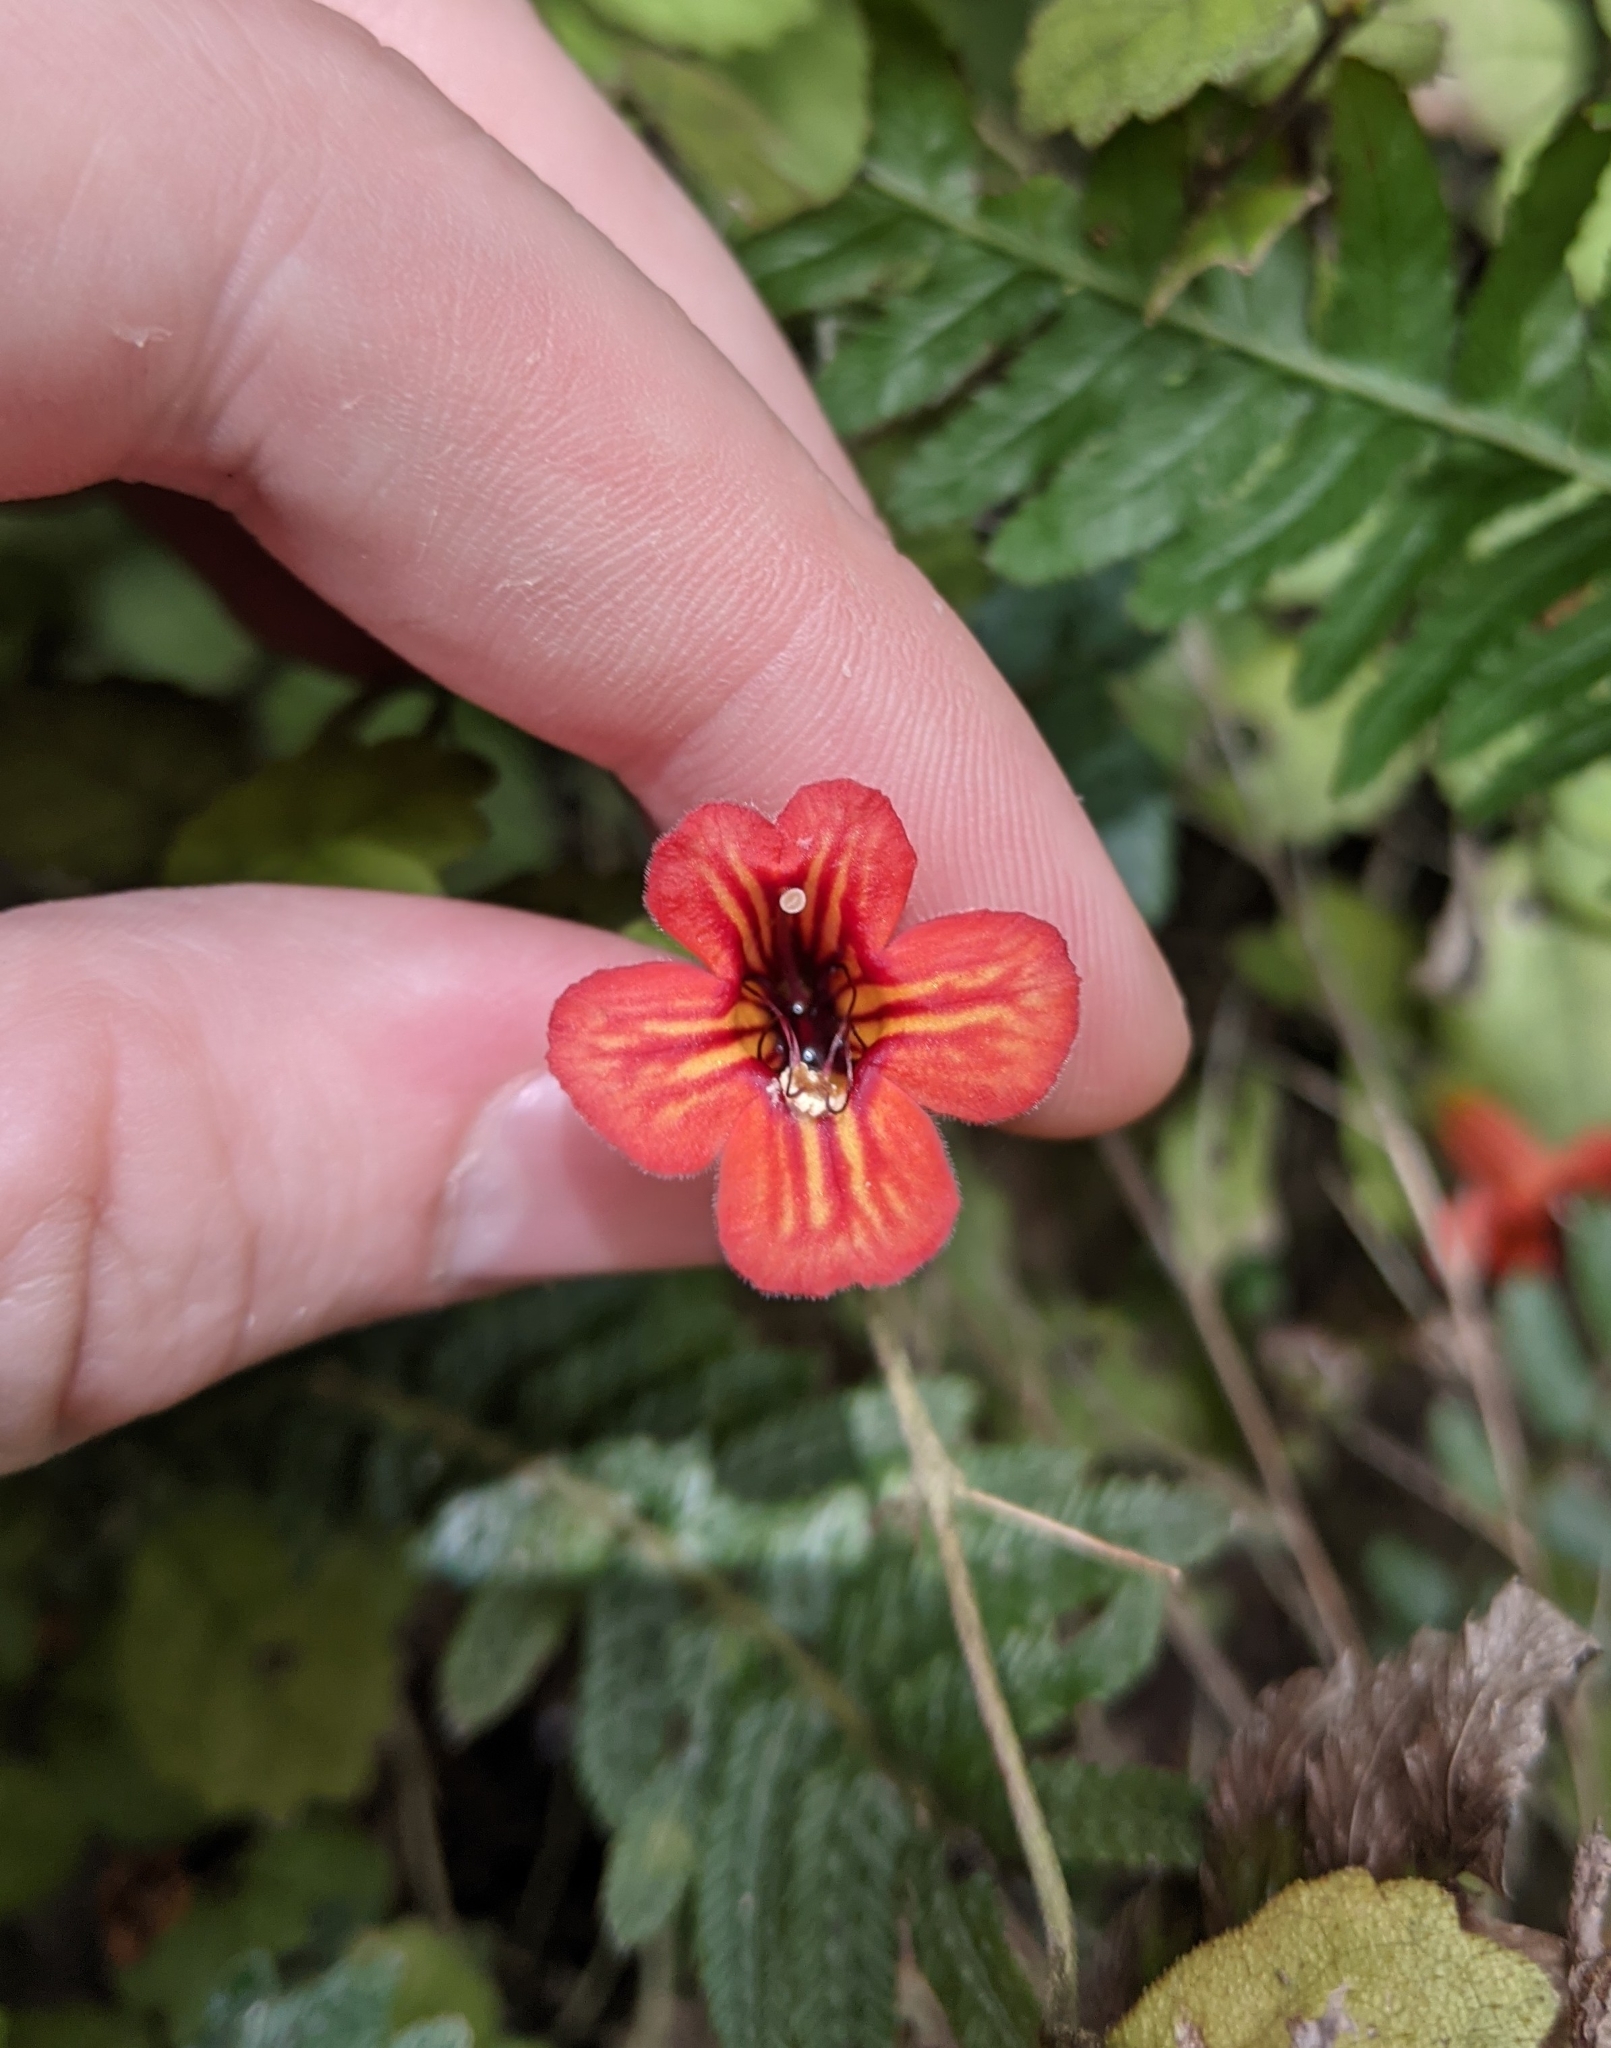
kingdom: Plantae
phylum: Tracheophyta
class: Magnoliopsida
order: Lamiales
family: Gesneriaceae
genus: Rhabdothamnus
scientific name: Rhabdothamnus solandri
